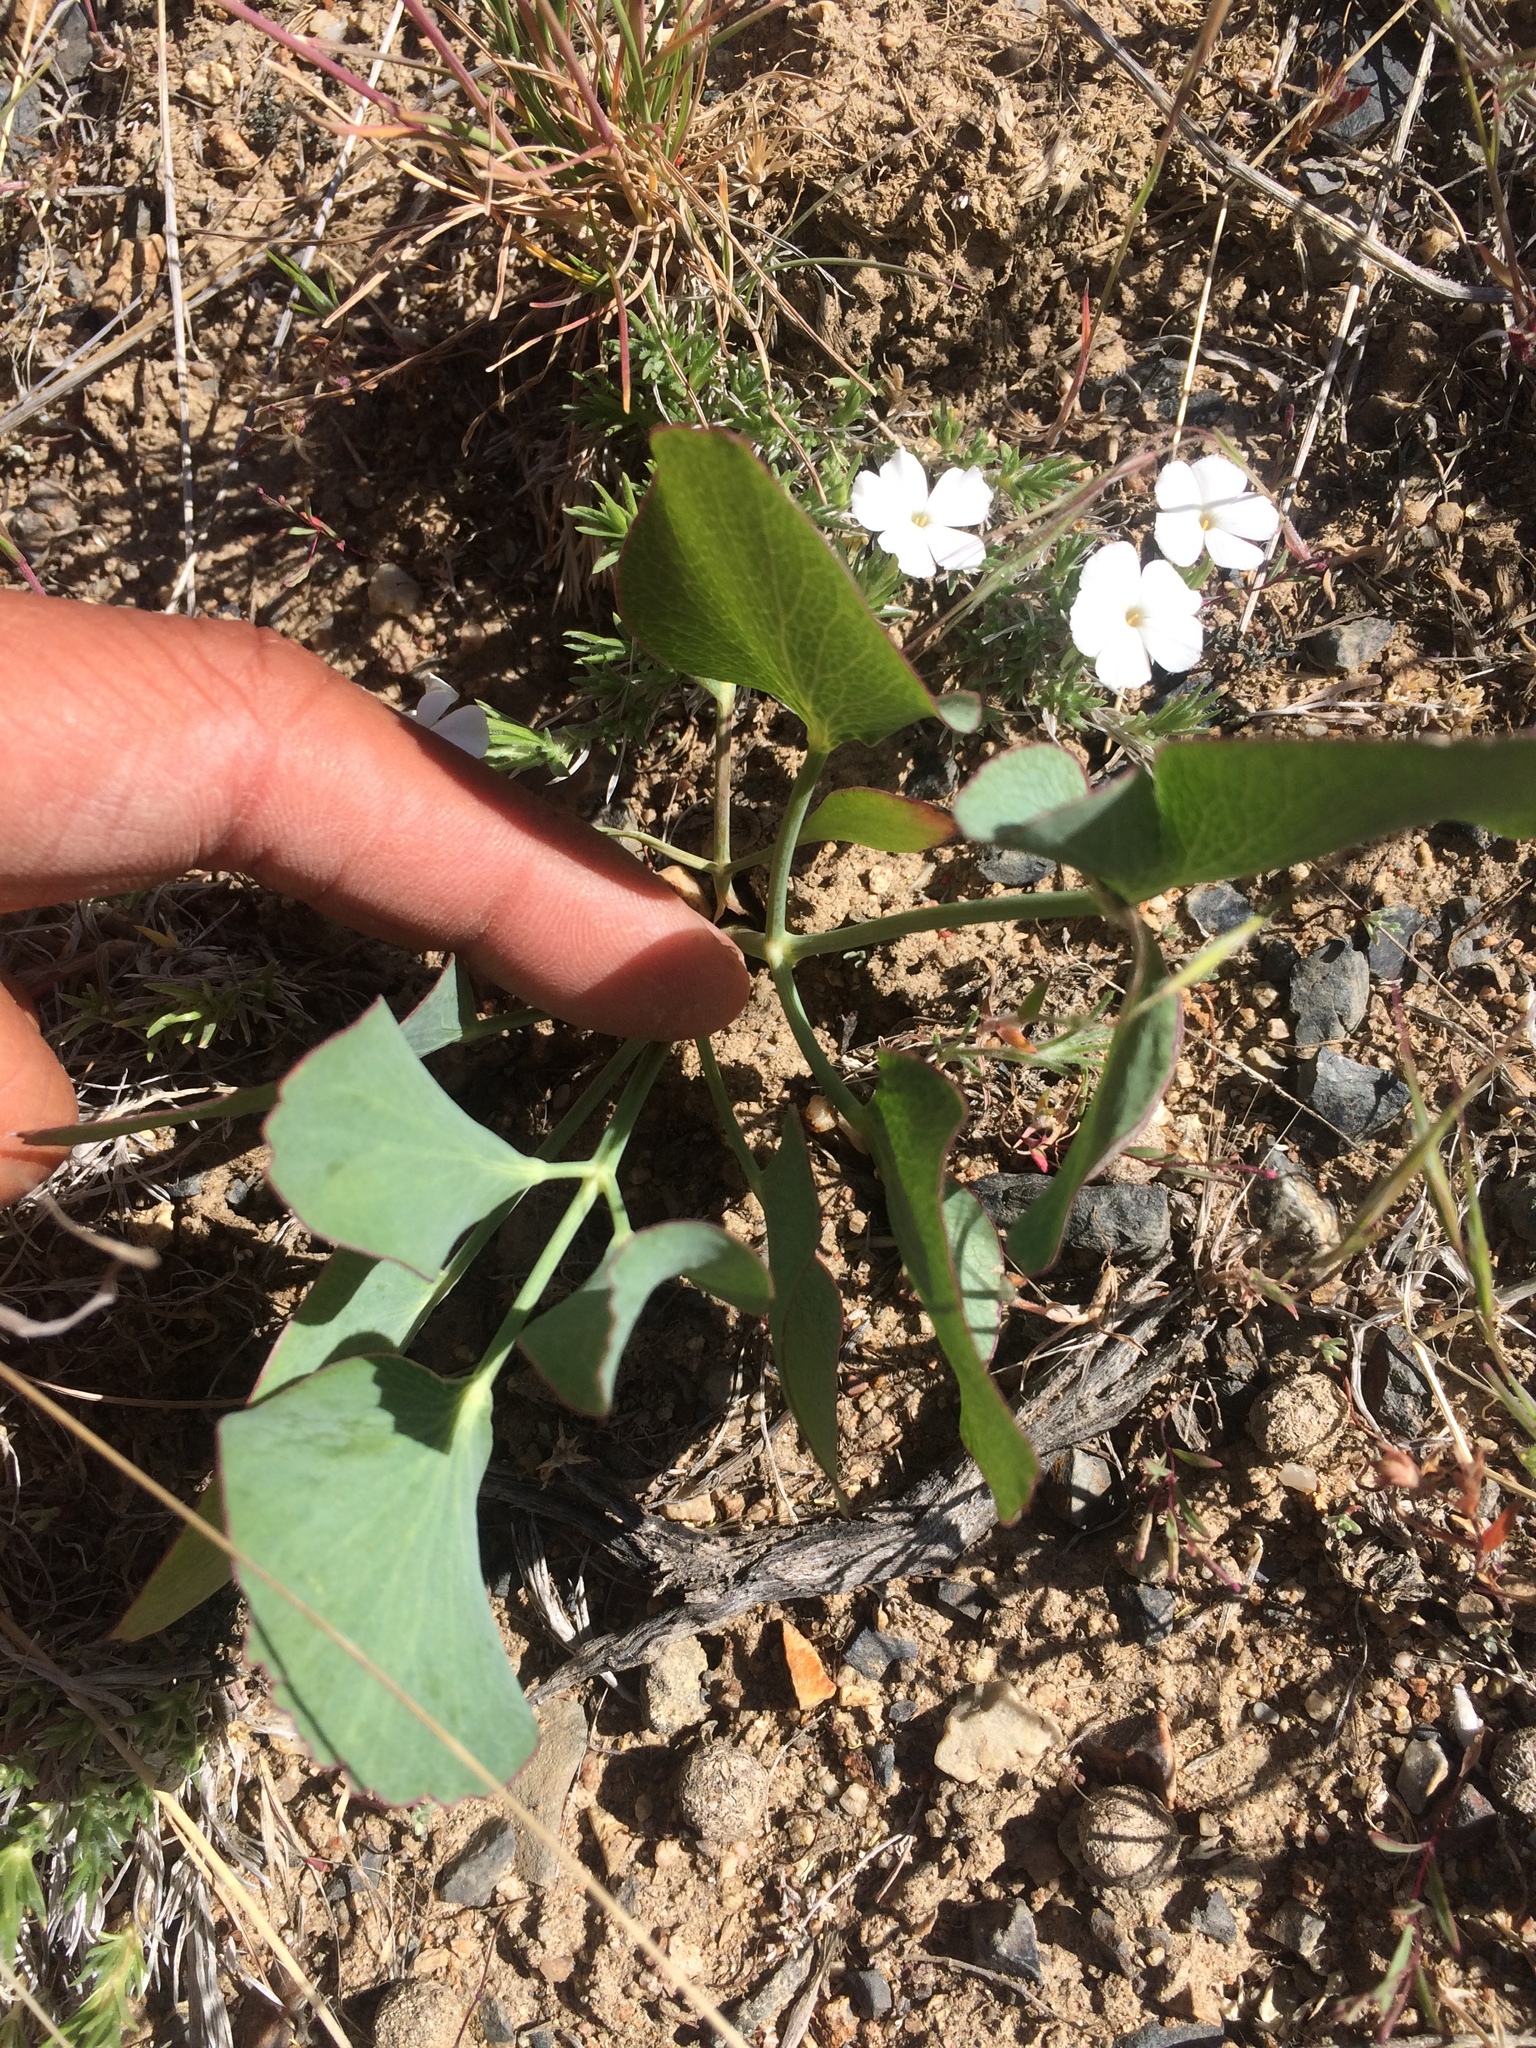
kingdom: Plantae
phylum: Tracheophyta
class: Magnoliopsida
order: Apiales
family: Apiaceae
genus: Lomatium
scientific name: Lomatium nudicaule
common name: Pestle lomatium
